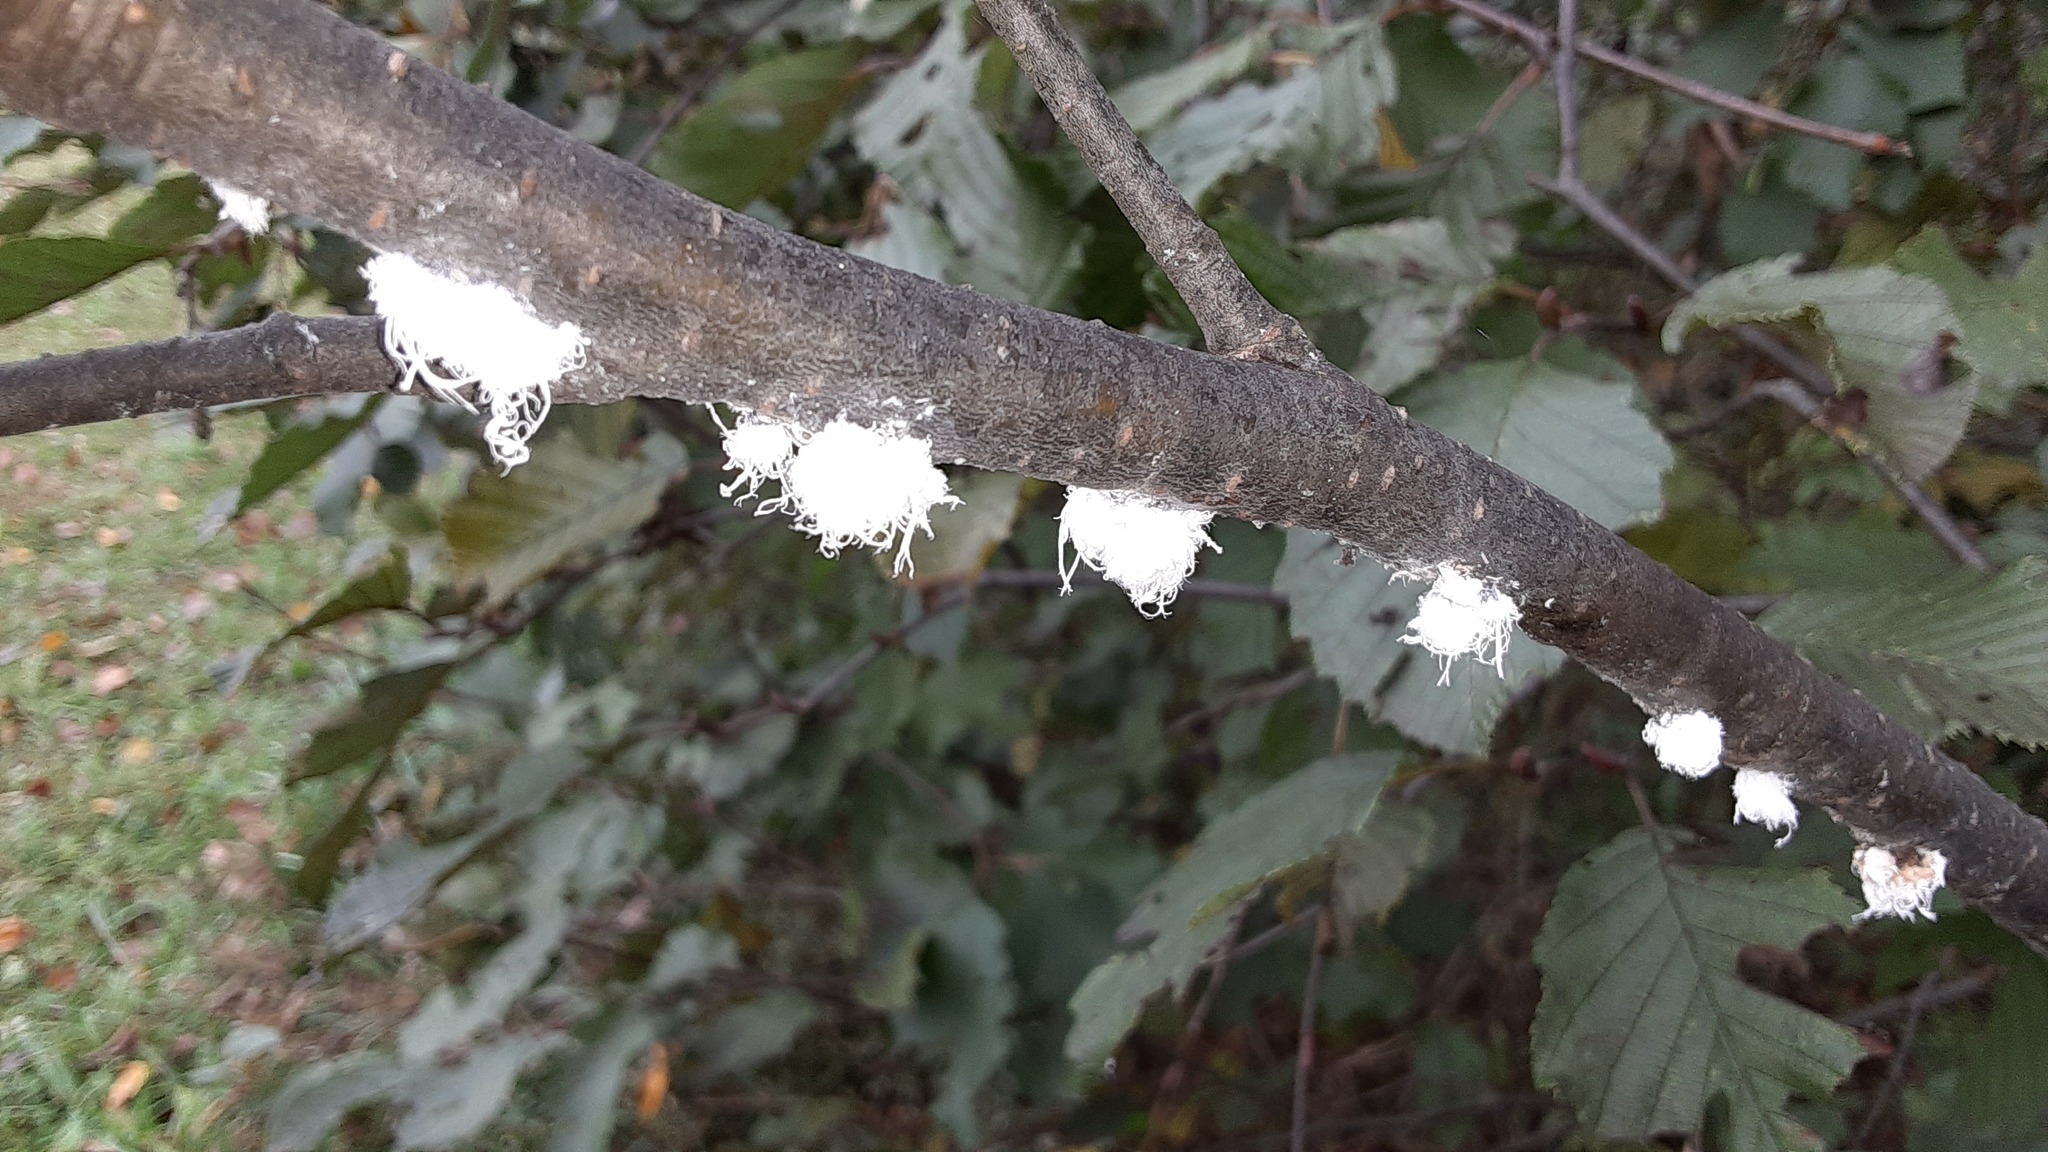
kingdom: Animalia
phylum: Arthropoda
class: Insecta
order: Hemiptera
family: Aphididae
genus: Prociphilus
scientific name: Prociphilus tessellatus
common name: Woolly alder aphid
